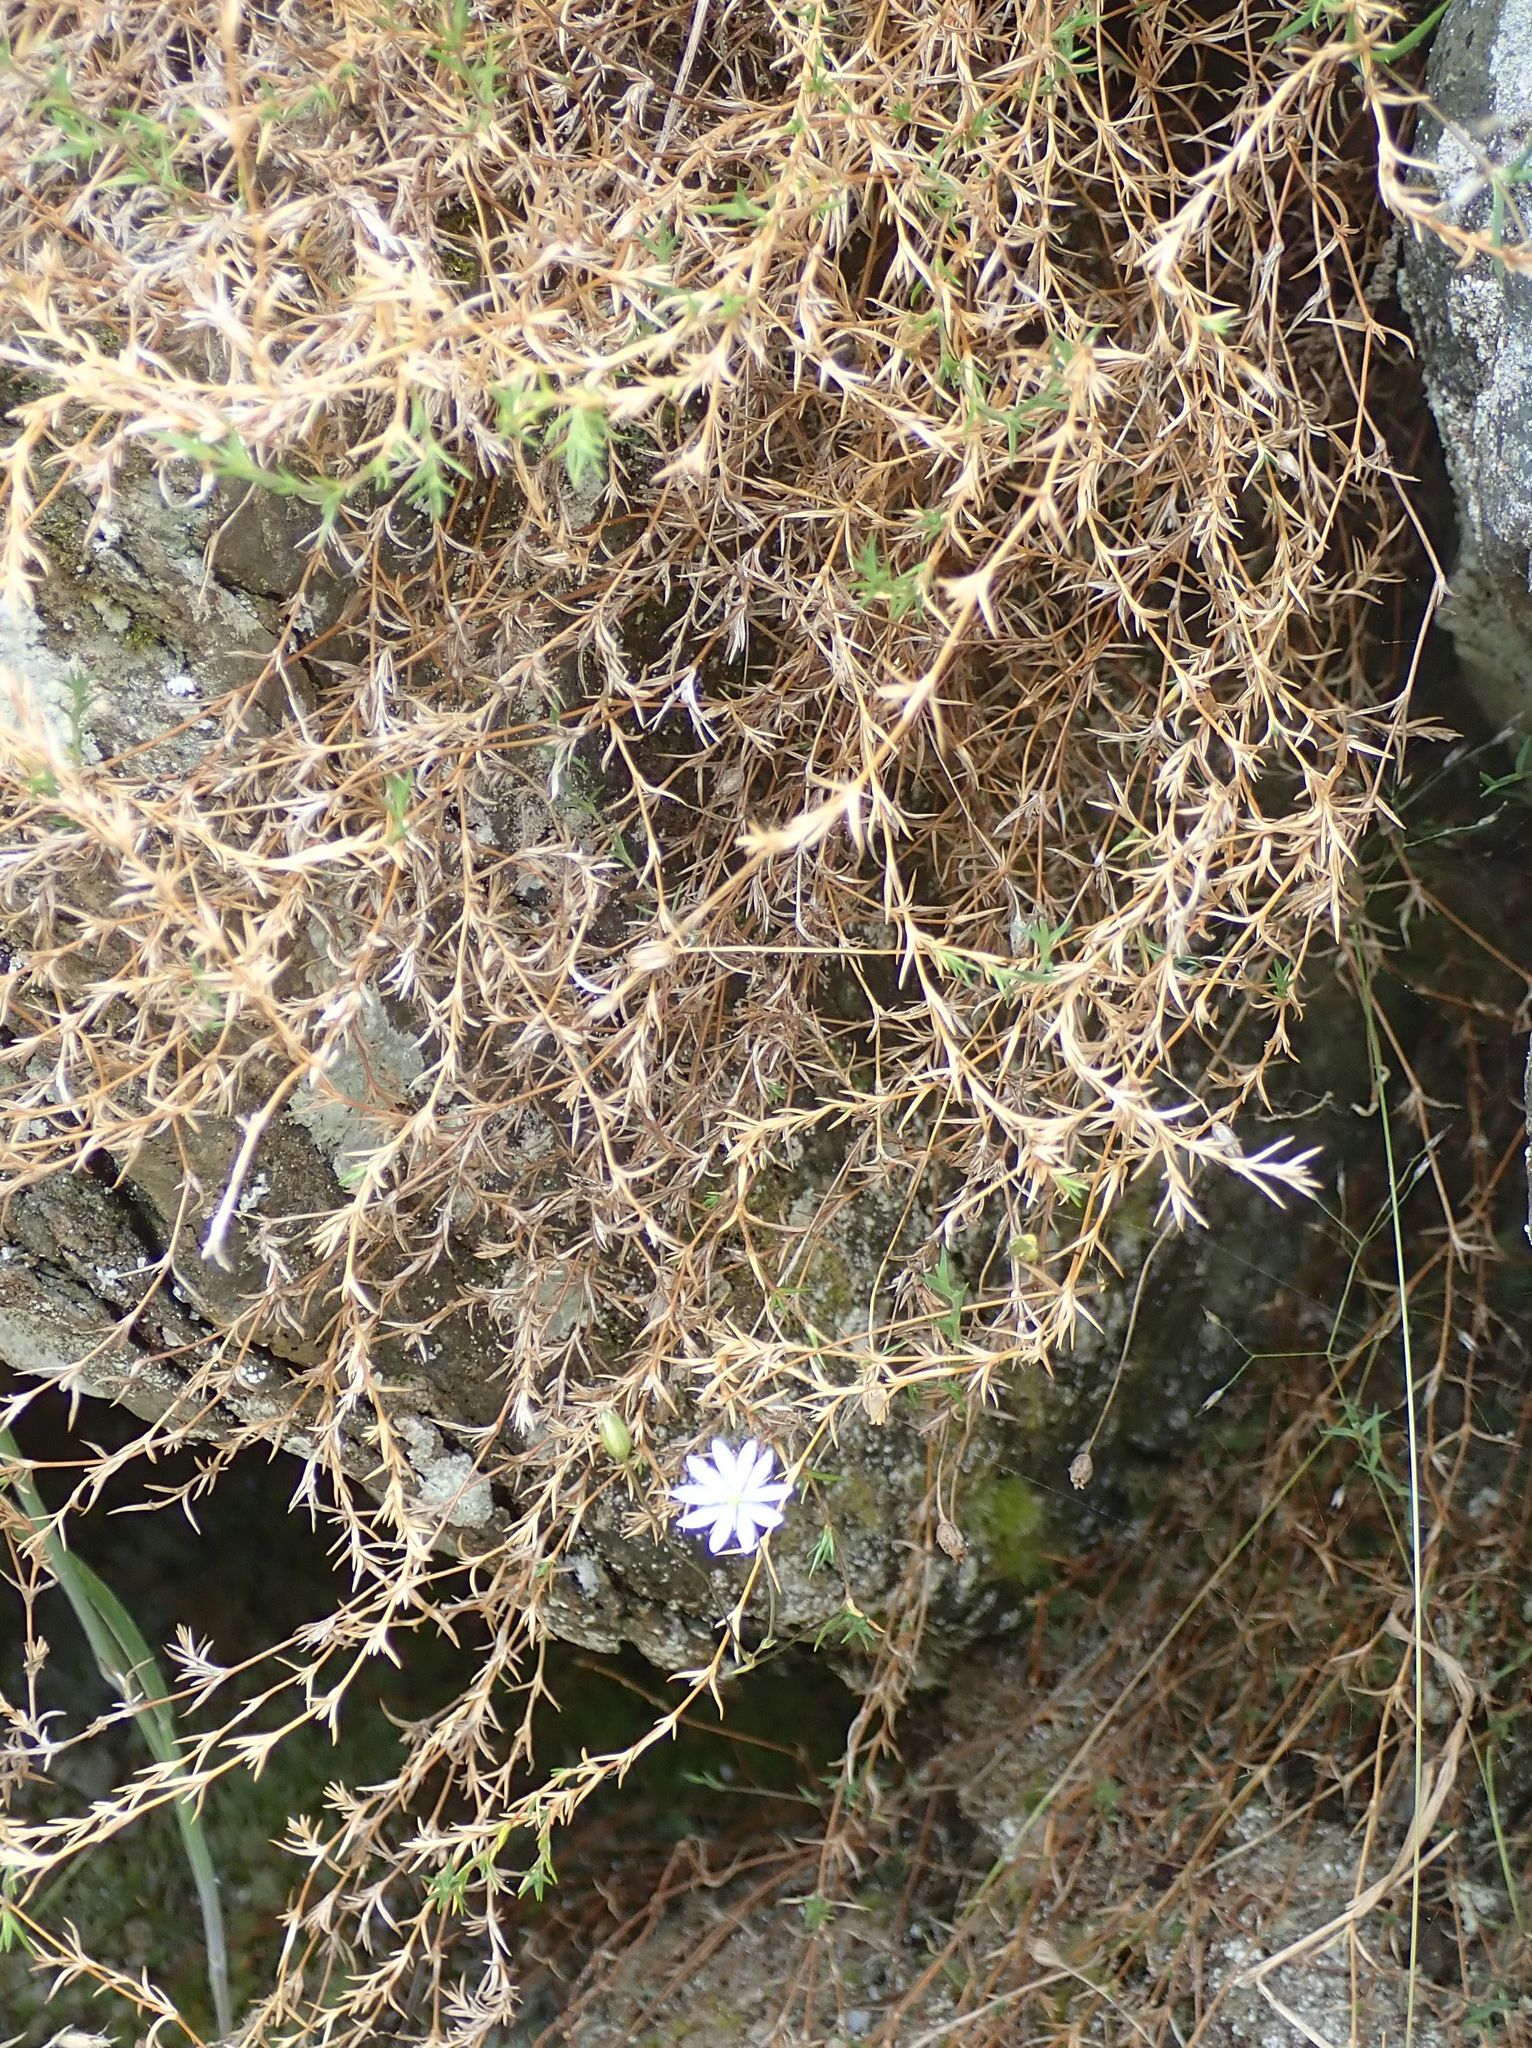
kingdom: Plantae
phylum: Tracheophyta
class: Magnoliopsida
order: Caryophyllales
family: Caryophyllaceae
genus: Stellaria
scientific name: Stellaria gracilenta
